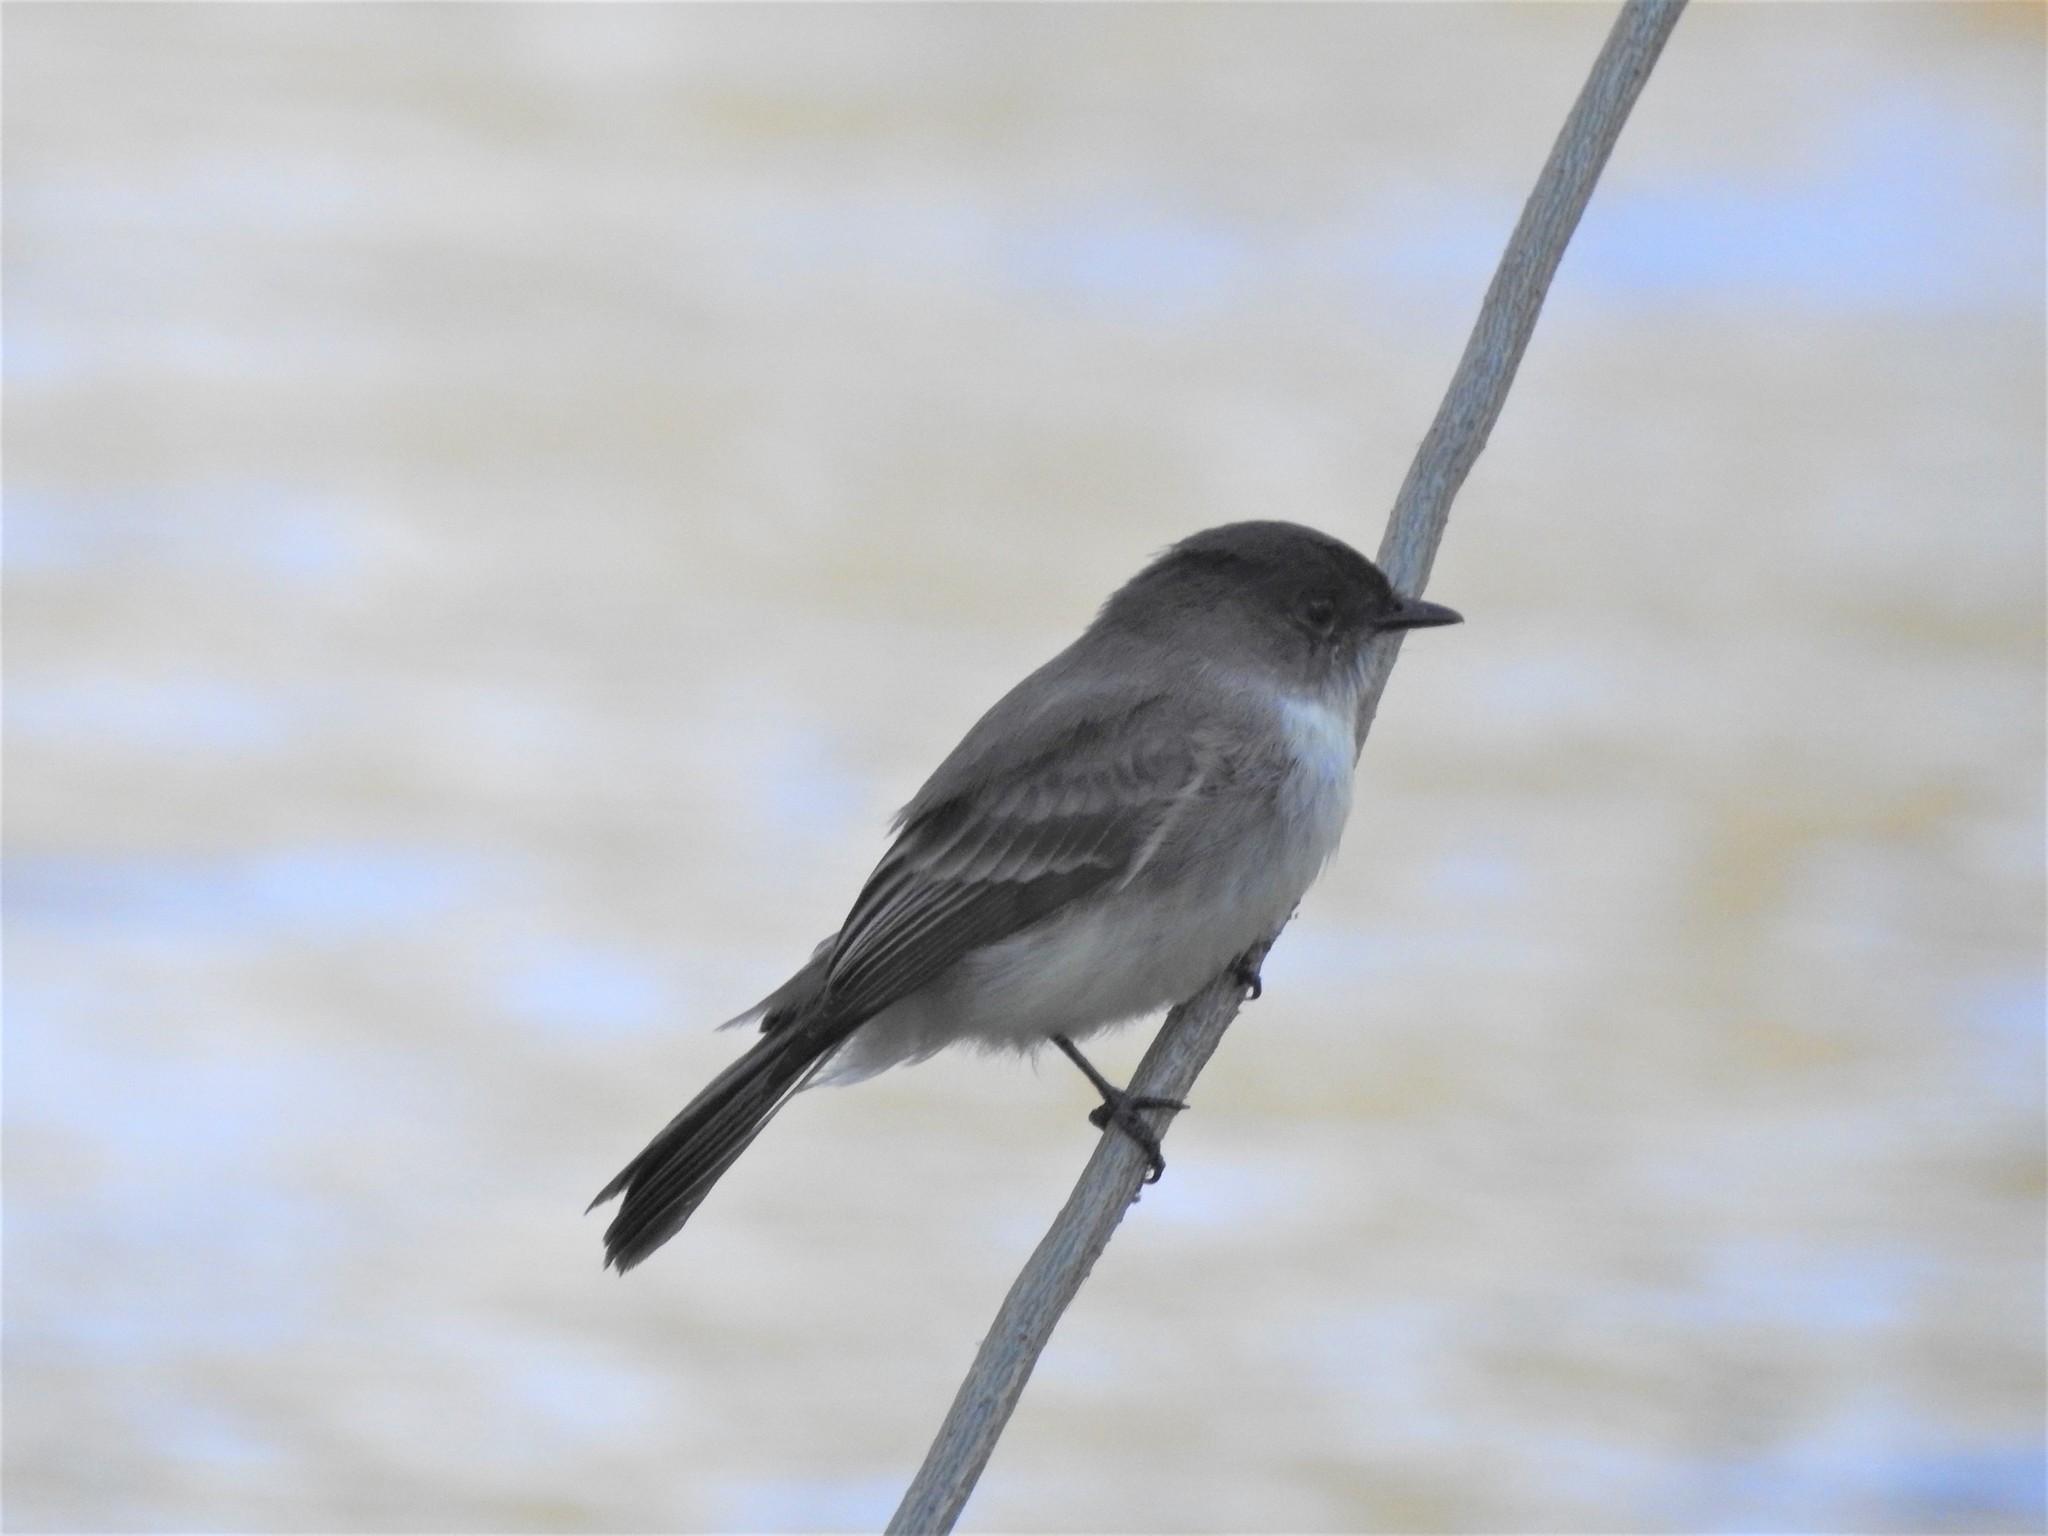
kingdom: Animalia
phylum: Chordata
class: Aves
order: Passeriformes
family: Tyrannidae
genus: Sayornis
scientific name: Sayornis phoebe
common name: Eastern phoebe
